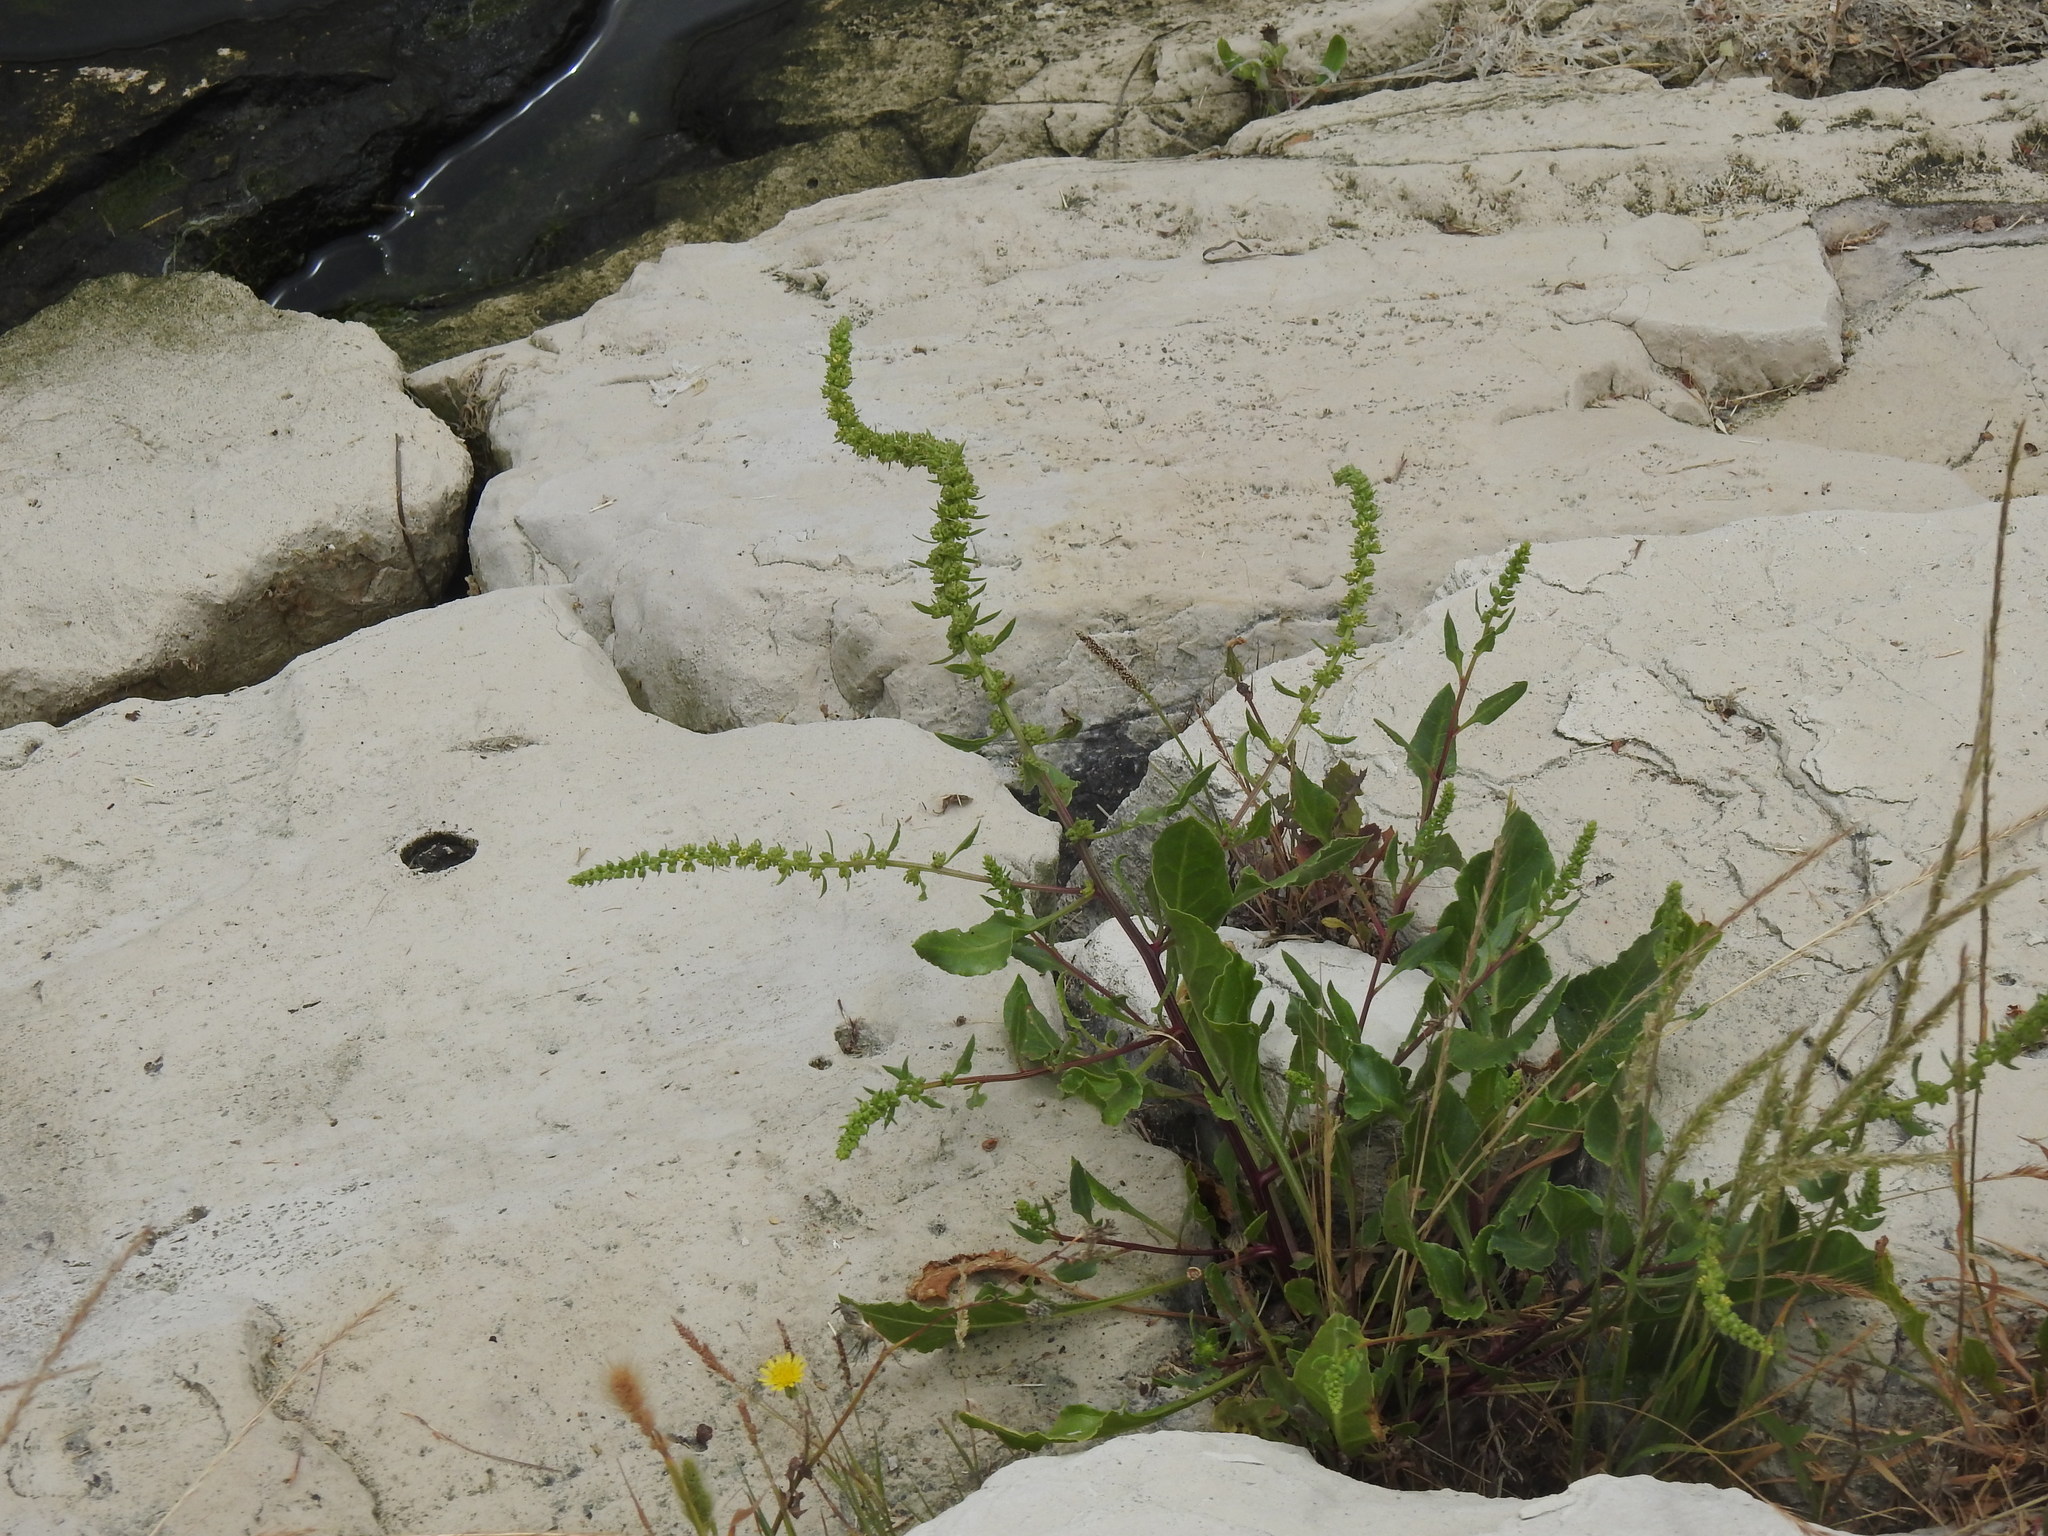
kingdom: Plantae
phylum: Tracheophyta
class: Magnoliopsida
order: Caryophyllales
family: Amaranthaceae
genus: Beta
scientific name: Beta vulgaris
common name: Beet
